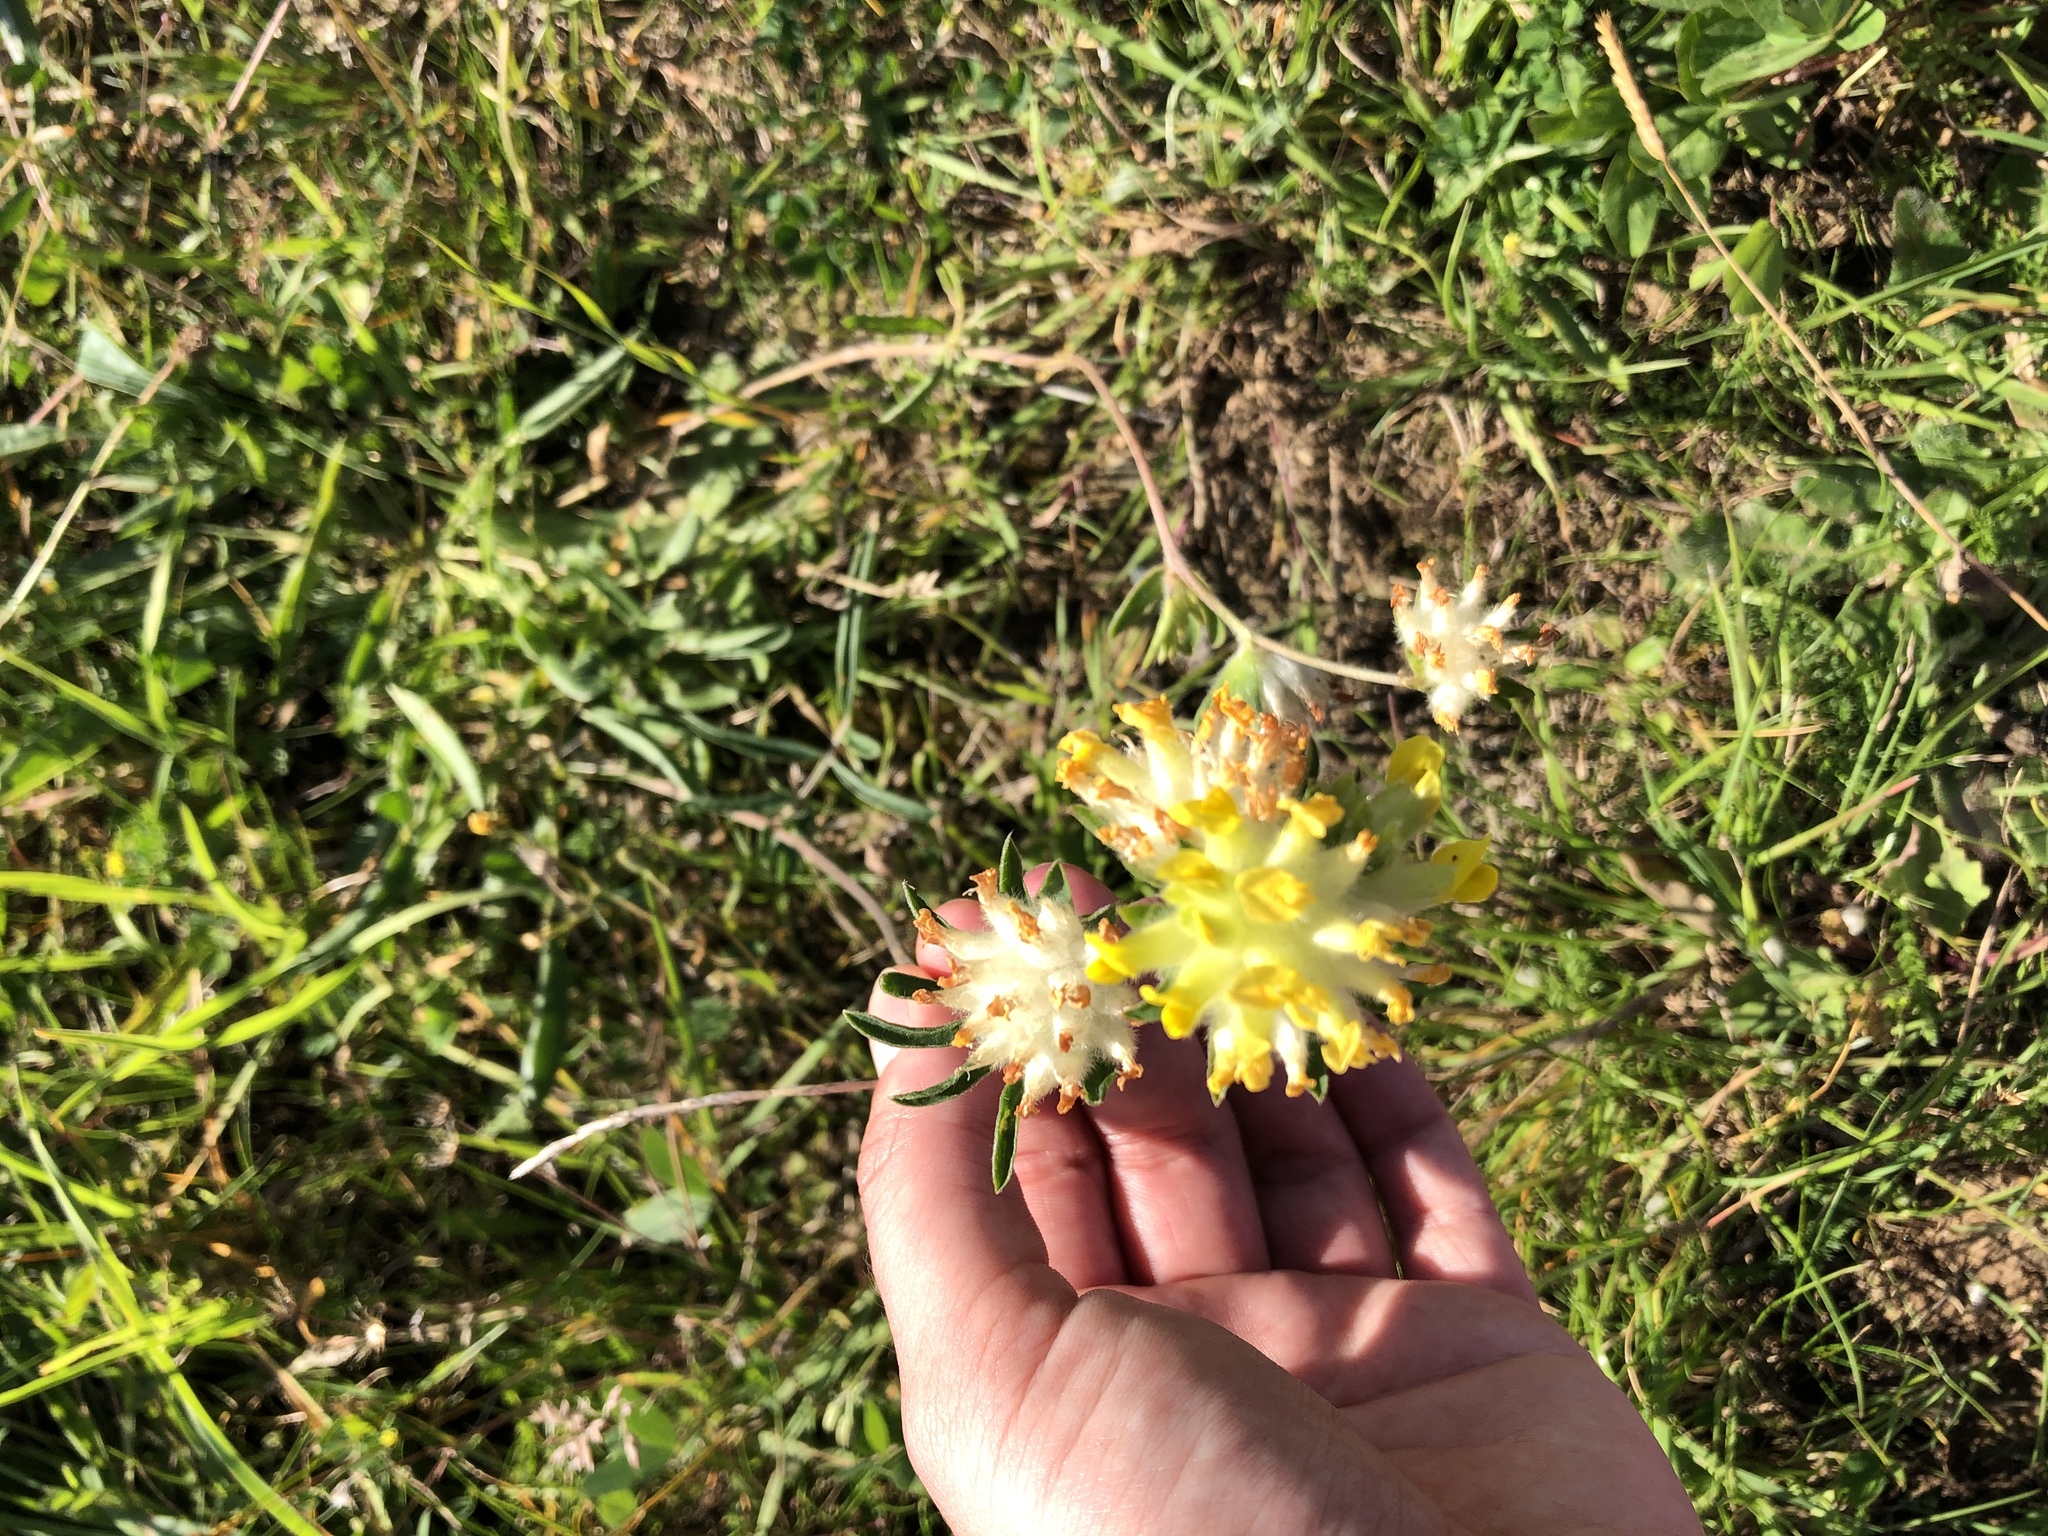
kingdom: Plantae
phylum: Tracheophyta
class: Magnoliopsida
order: Fabales
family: Fabaceae
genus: Anthyllis
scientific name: Anthyllis vulneraria
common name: Kidney vetch
